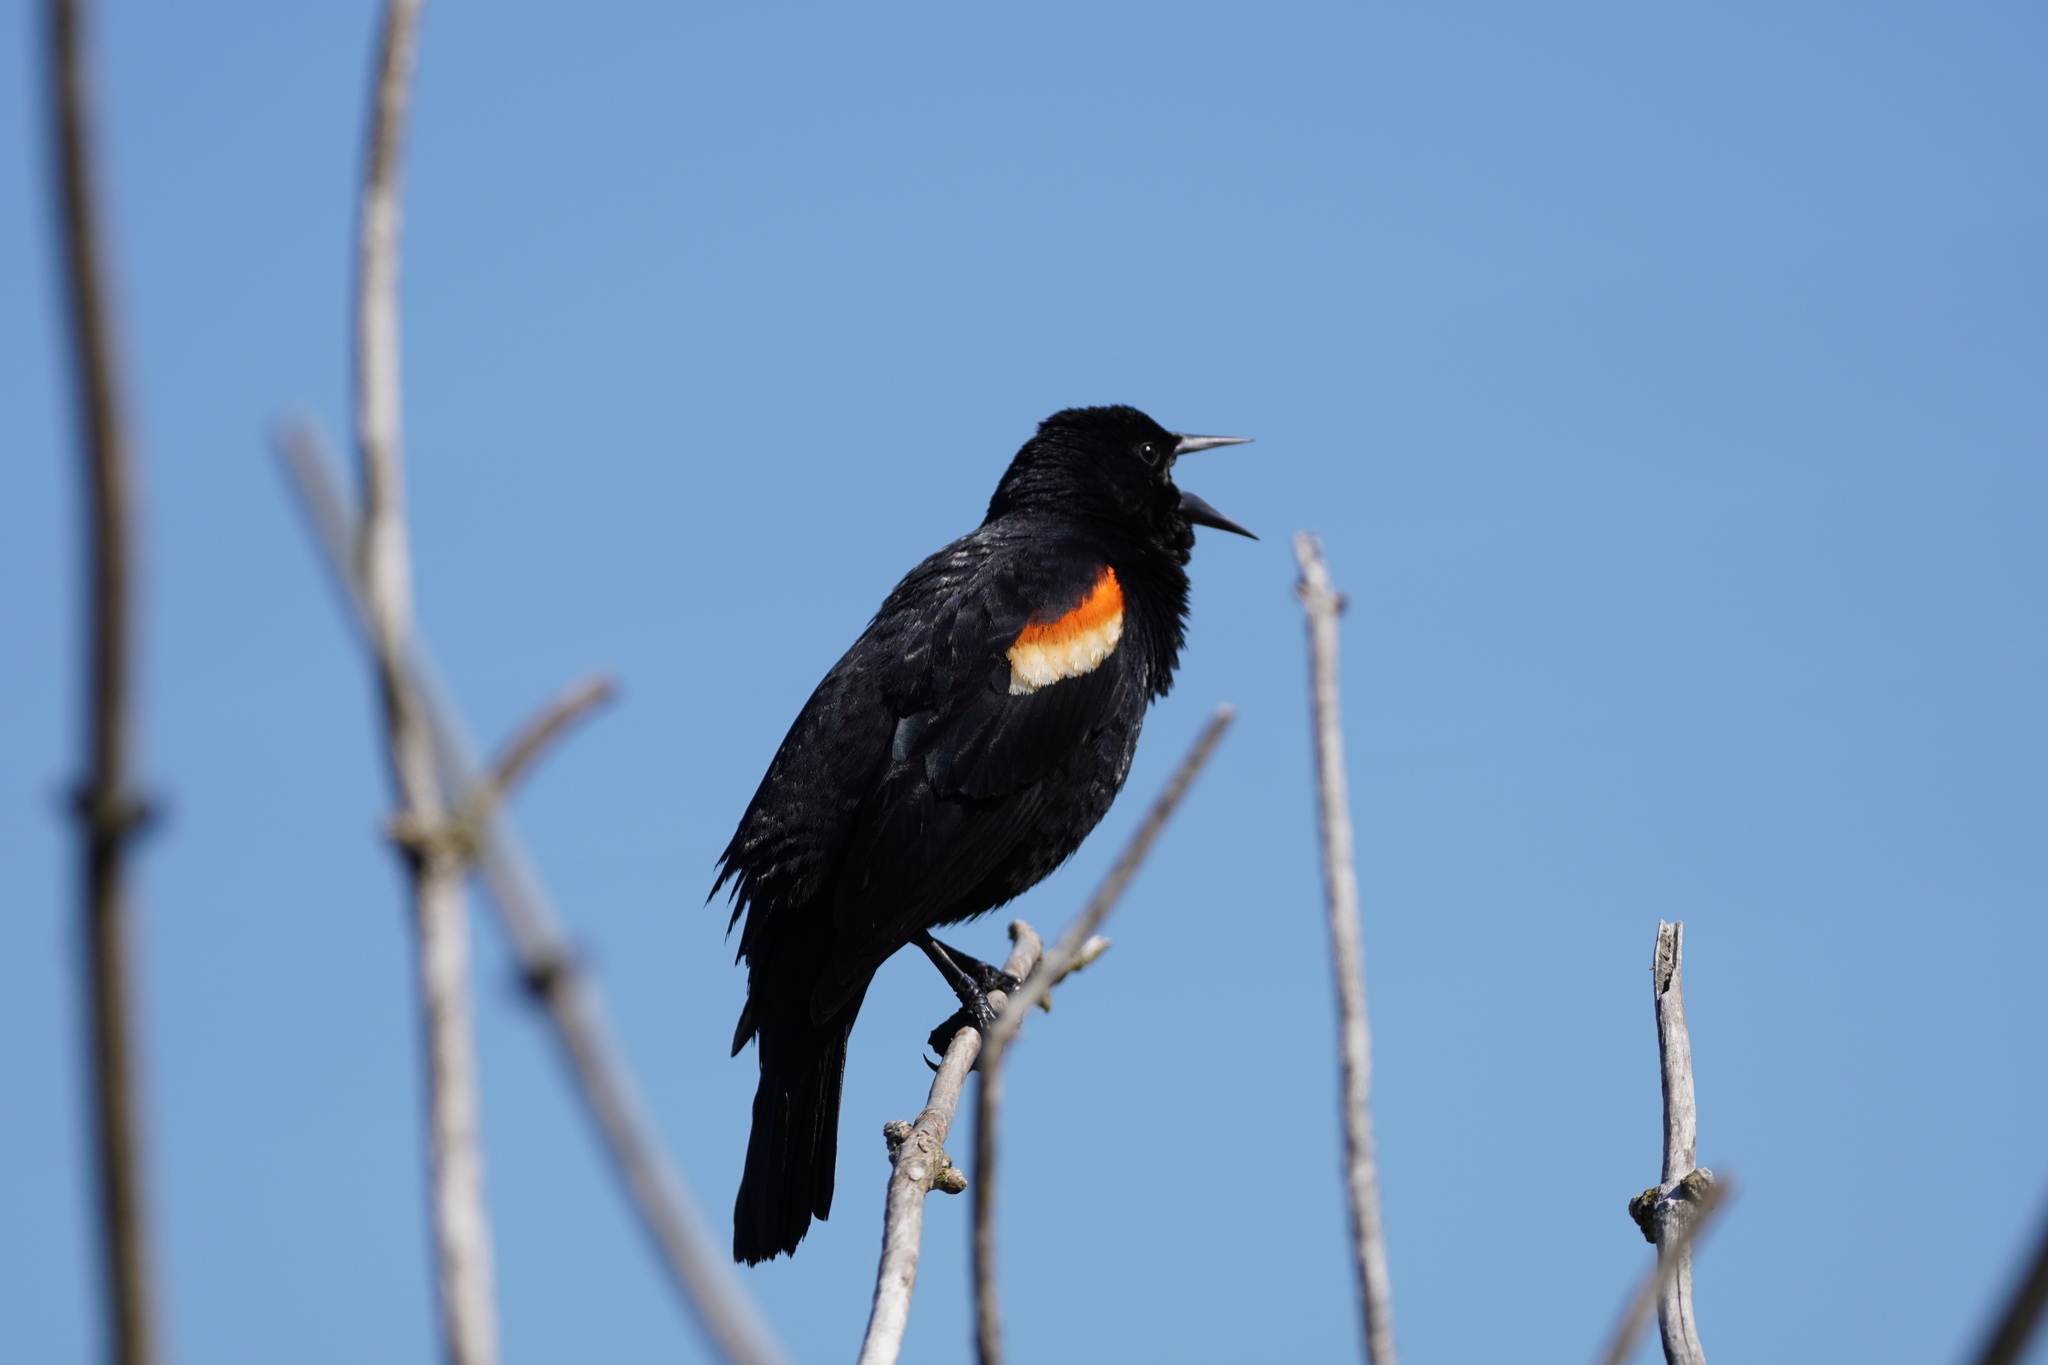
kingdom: Animalia
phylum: Chordata
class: Aves
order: Passeriformes
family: Icteridae
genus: Agelaius
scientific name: Agelaius phoeniceus
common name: Red-winged blackbird
